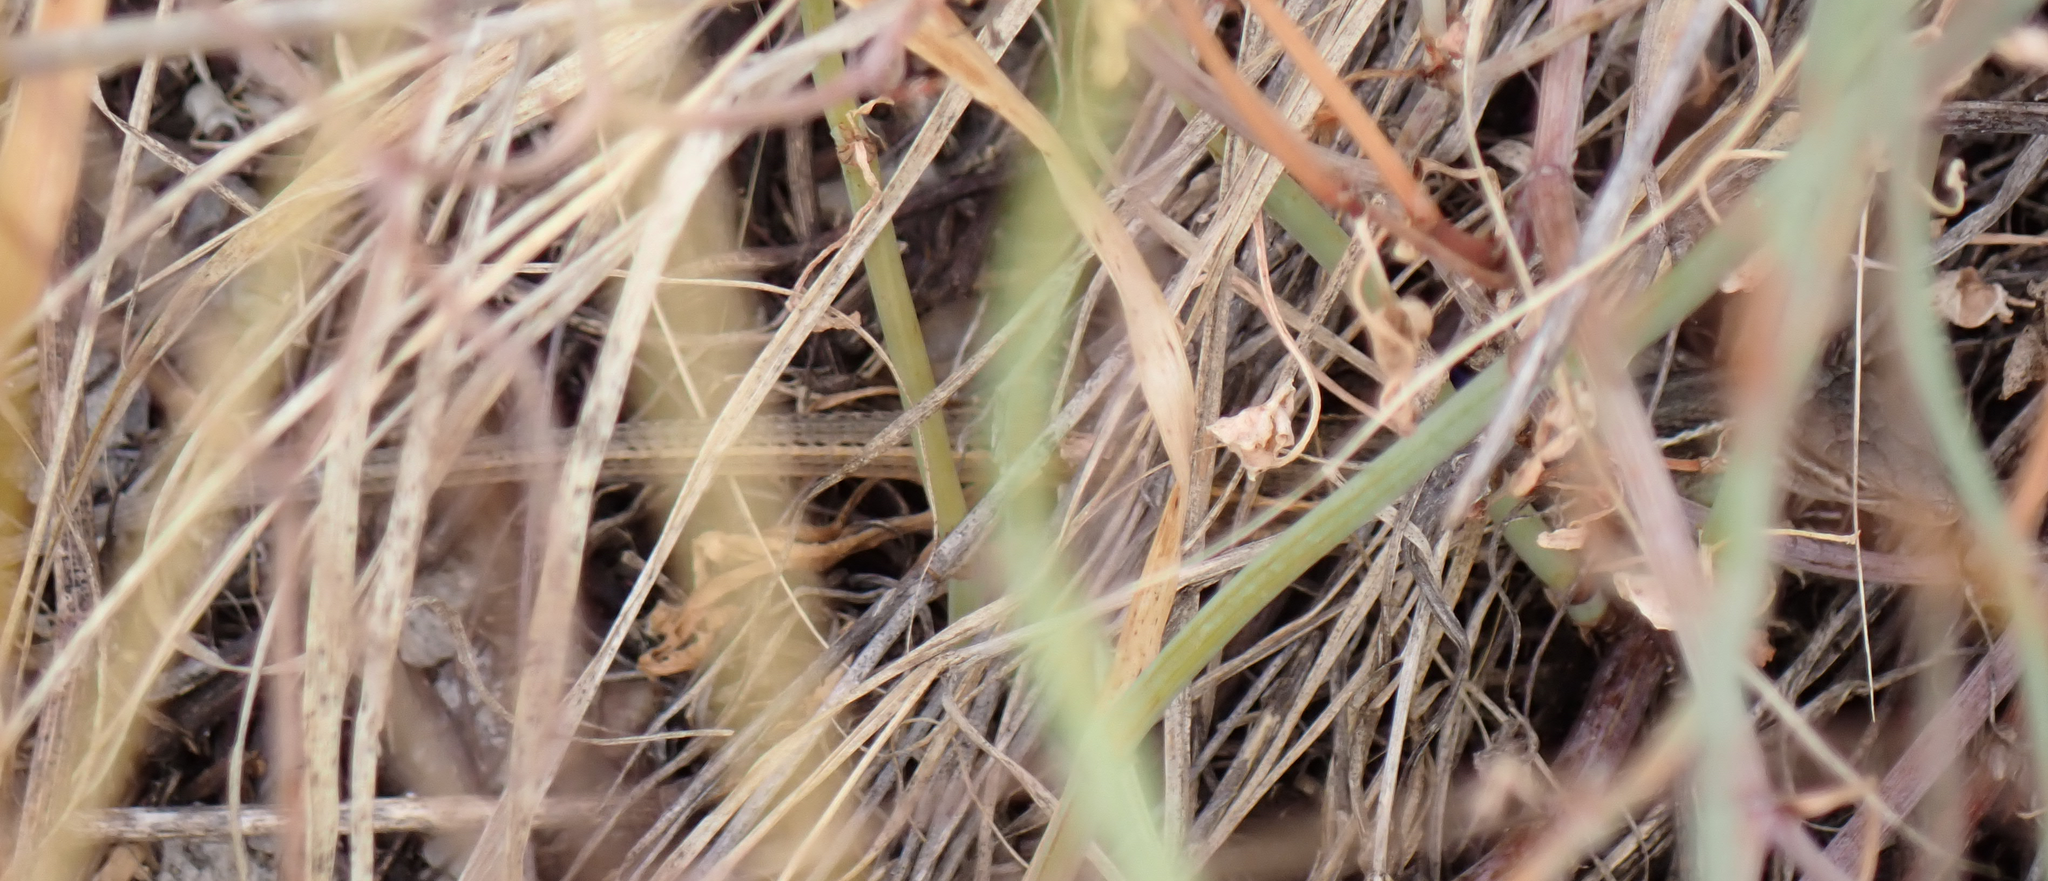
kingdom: Animalia
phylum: Chordata
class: Squamata
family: Lacertidae
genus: Psammodromus
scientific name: Psammodromus algirus
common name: Algerian psammodromus
